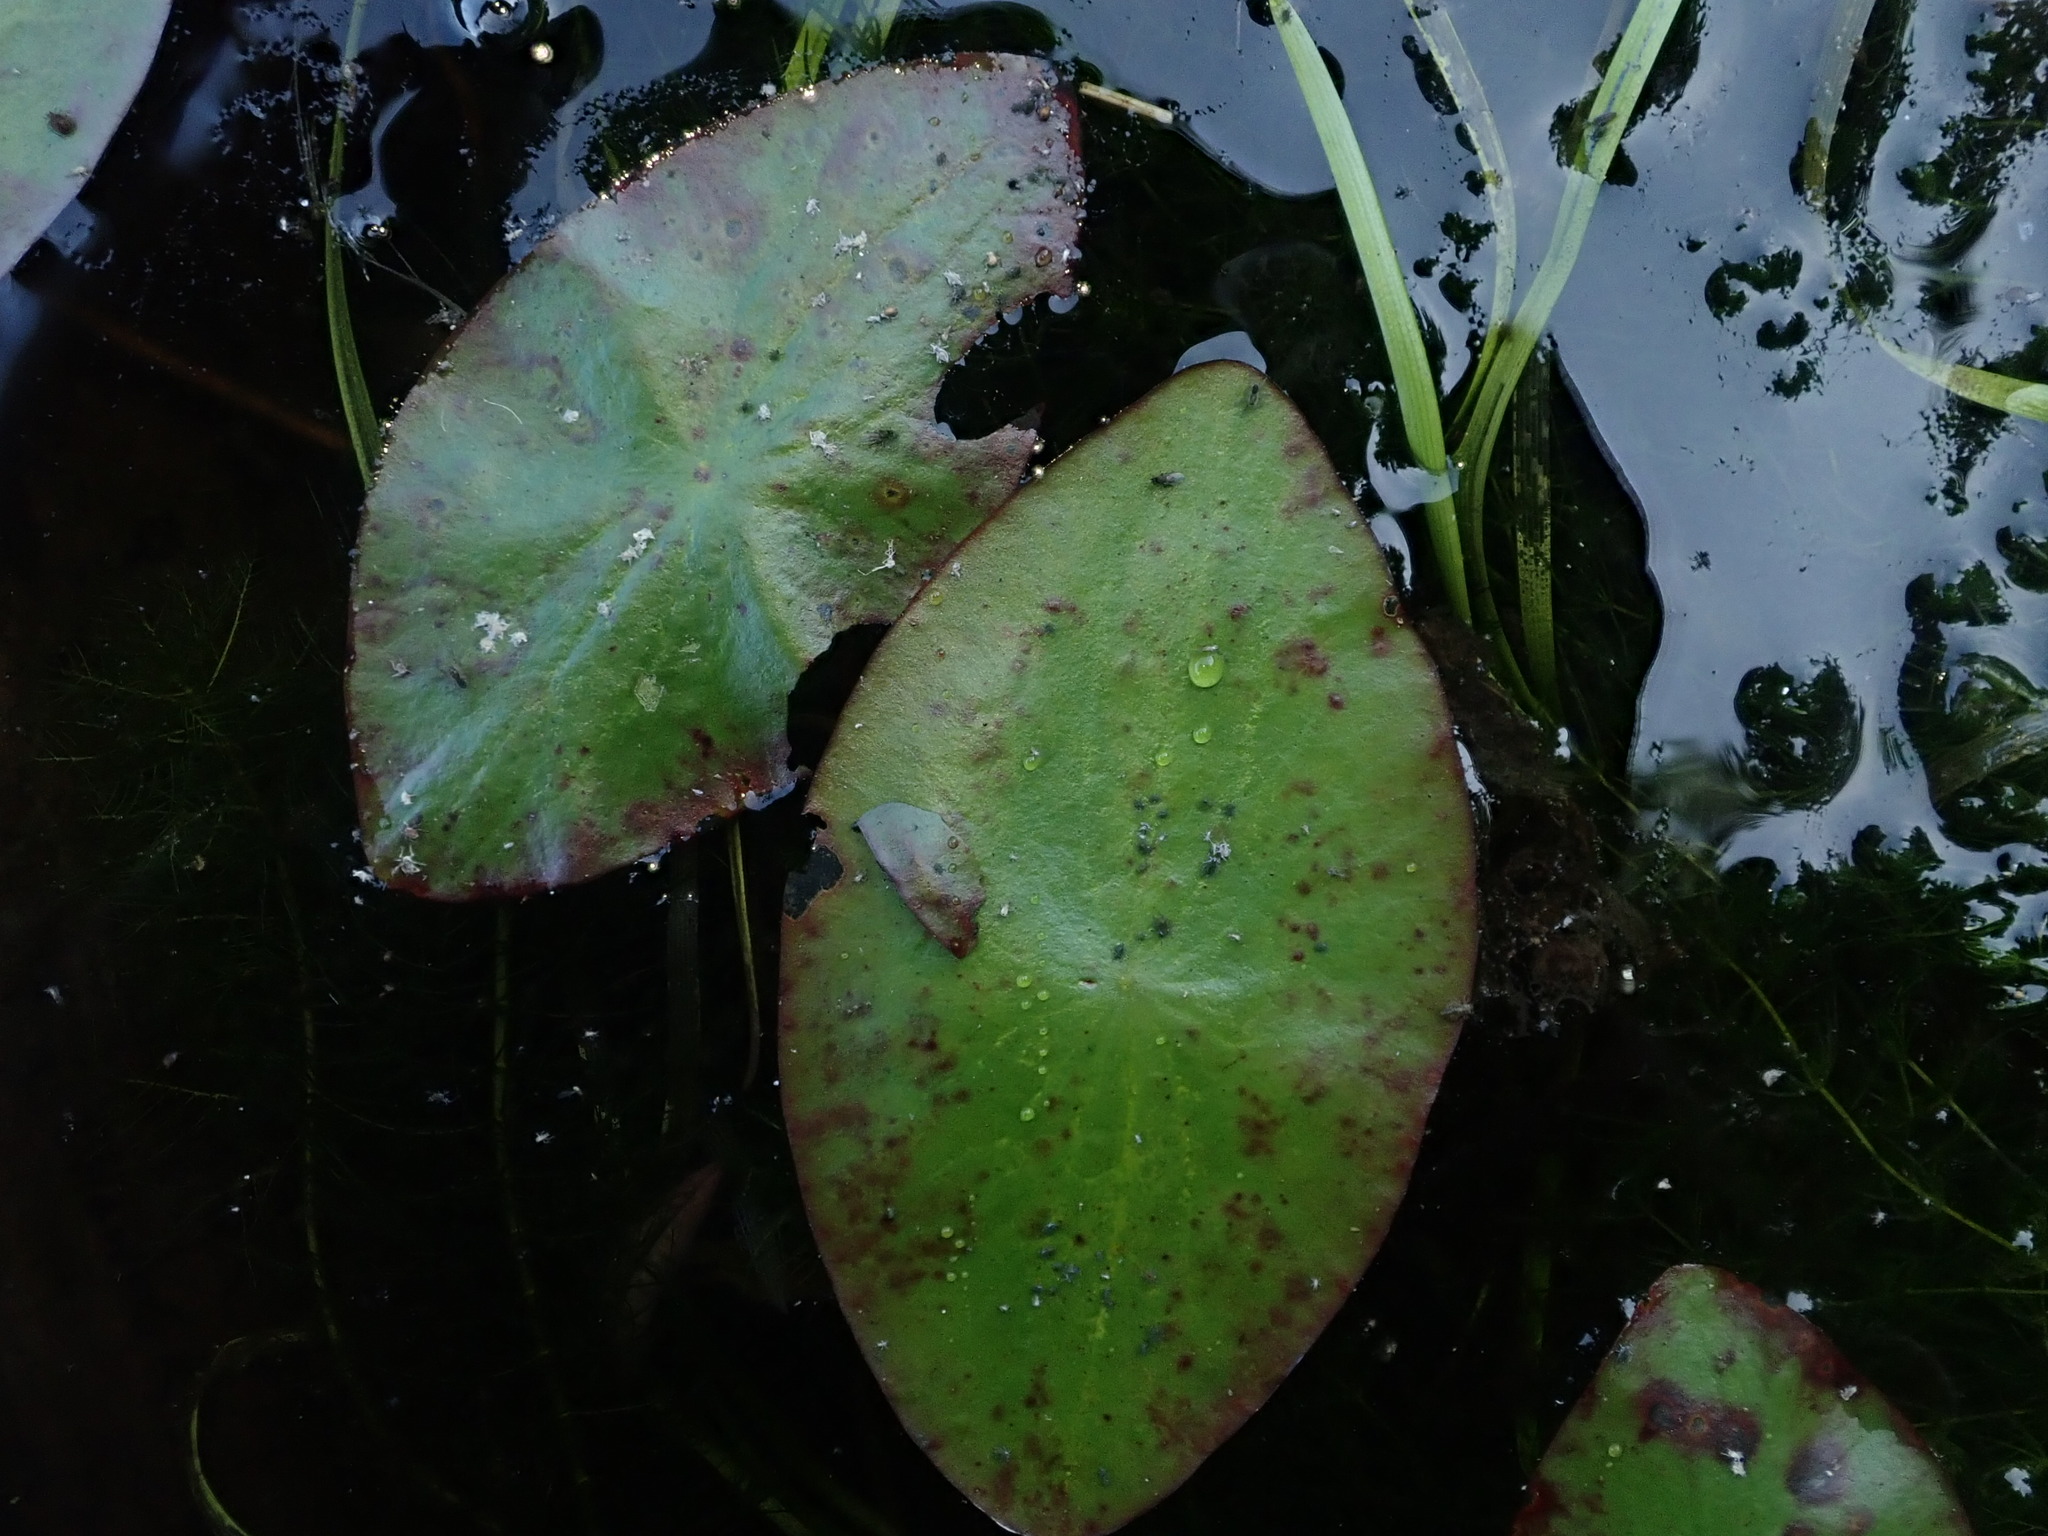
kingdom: Plantae
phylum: Tracheophyta
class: Magnoliopsida
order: Nymphaeales
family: Cabombaceae
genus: Brasenia
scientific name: Brasenia schreberi
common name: Water-shield
